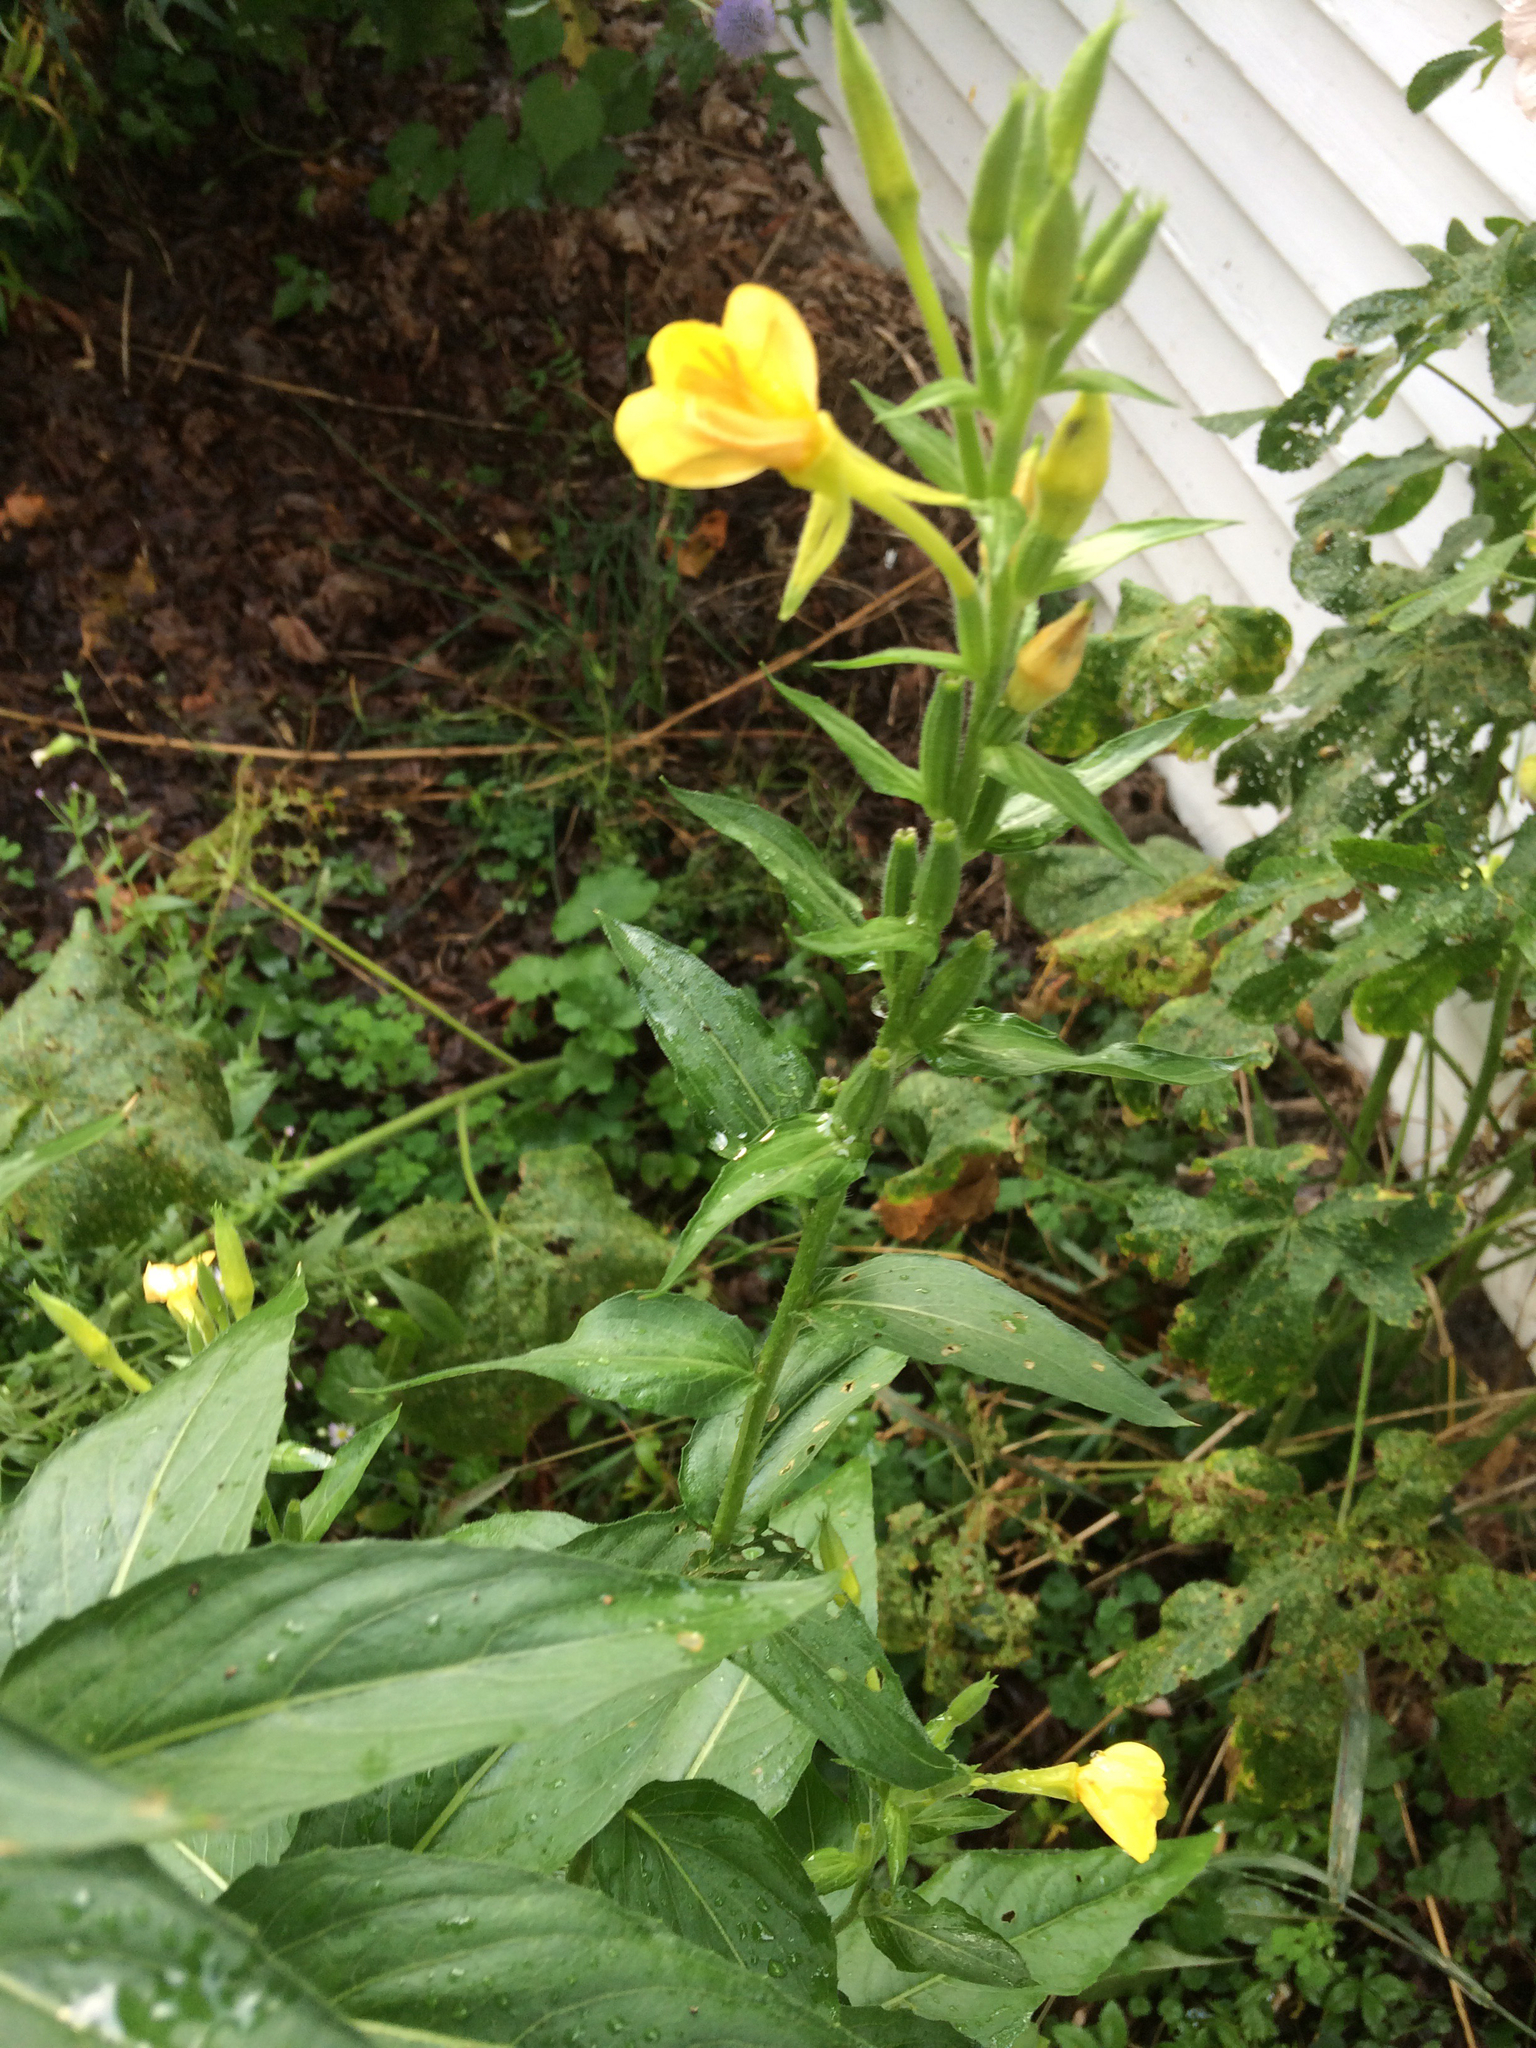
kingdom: Plantae
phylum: Tracheophyta
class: Magnoliopsida
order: Myrtales
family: Onagraceae
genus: Oenothera
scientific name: Oenothera biennis
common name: Common evening-primrose
